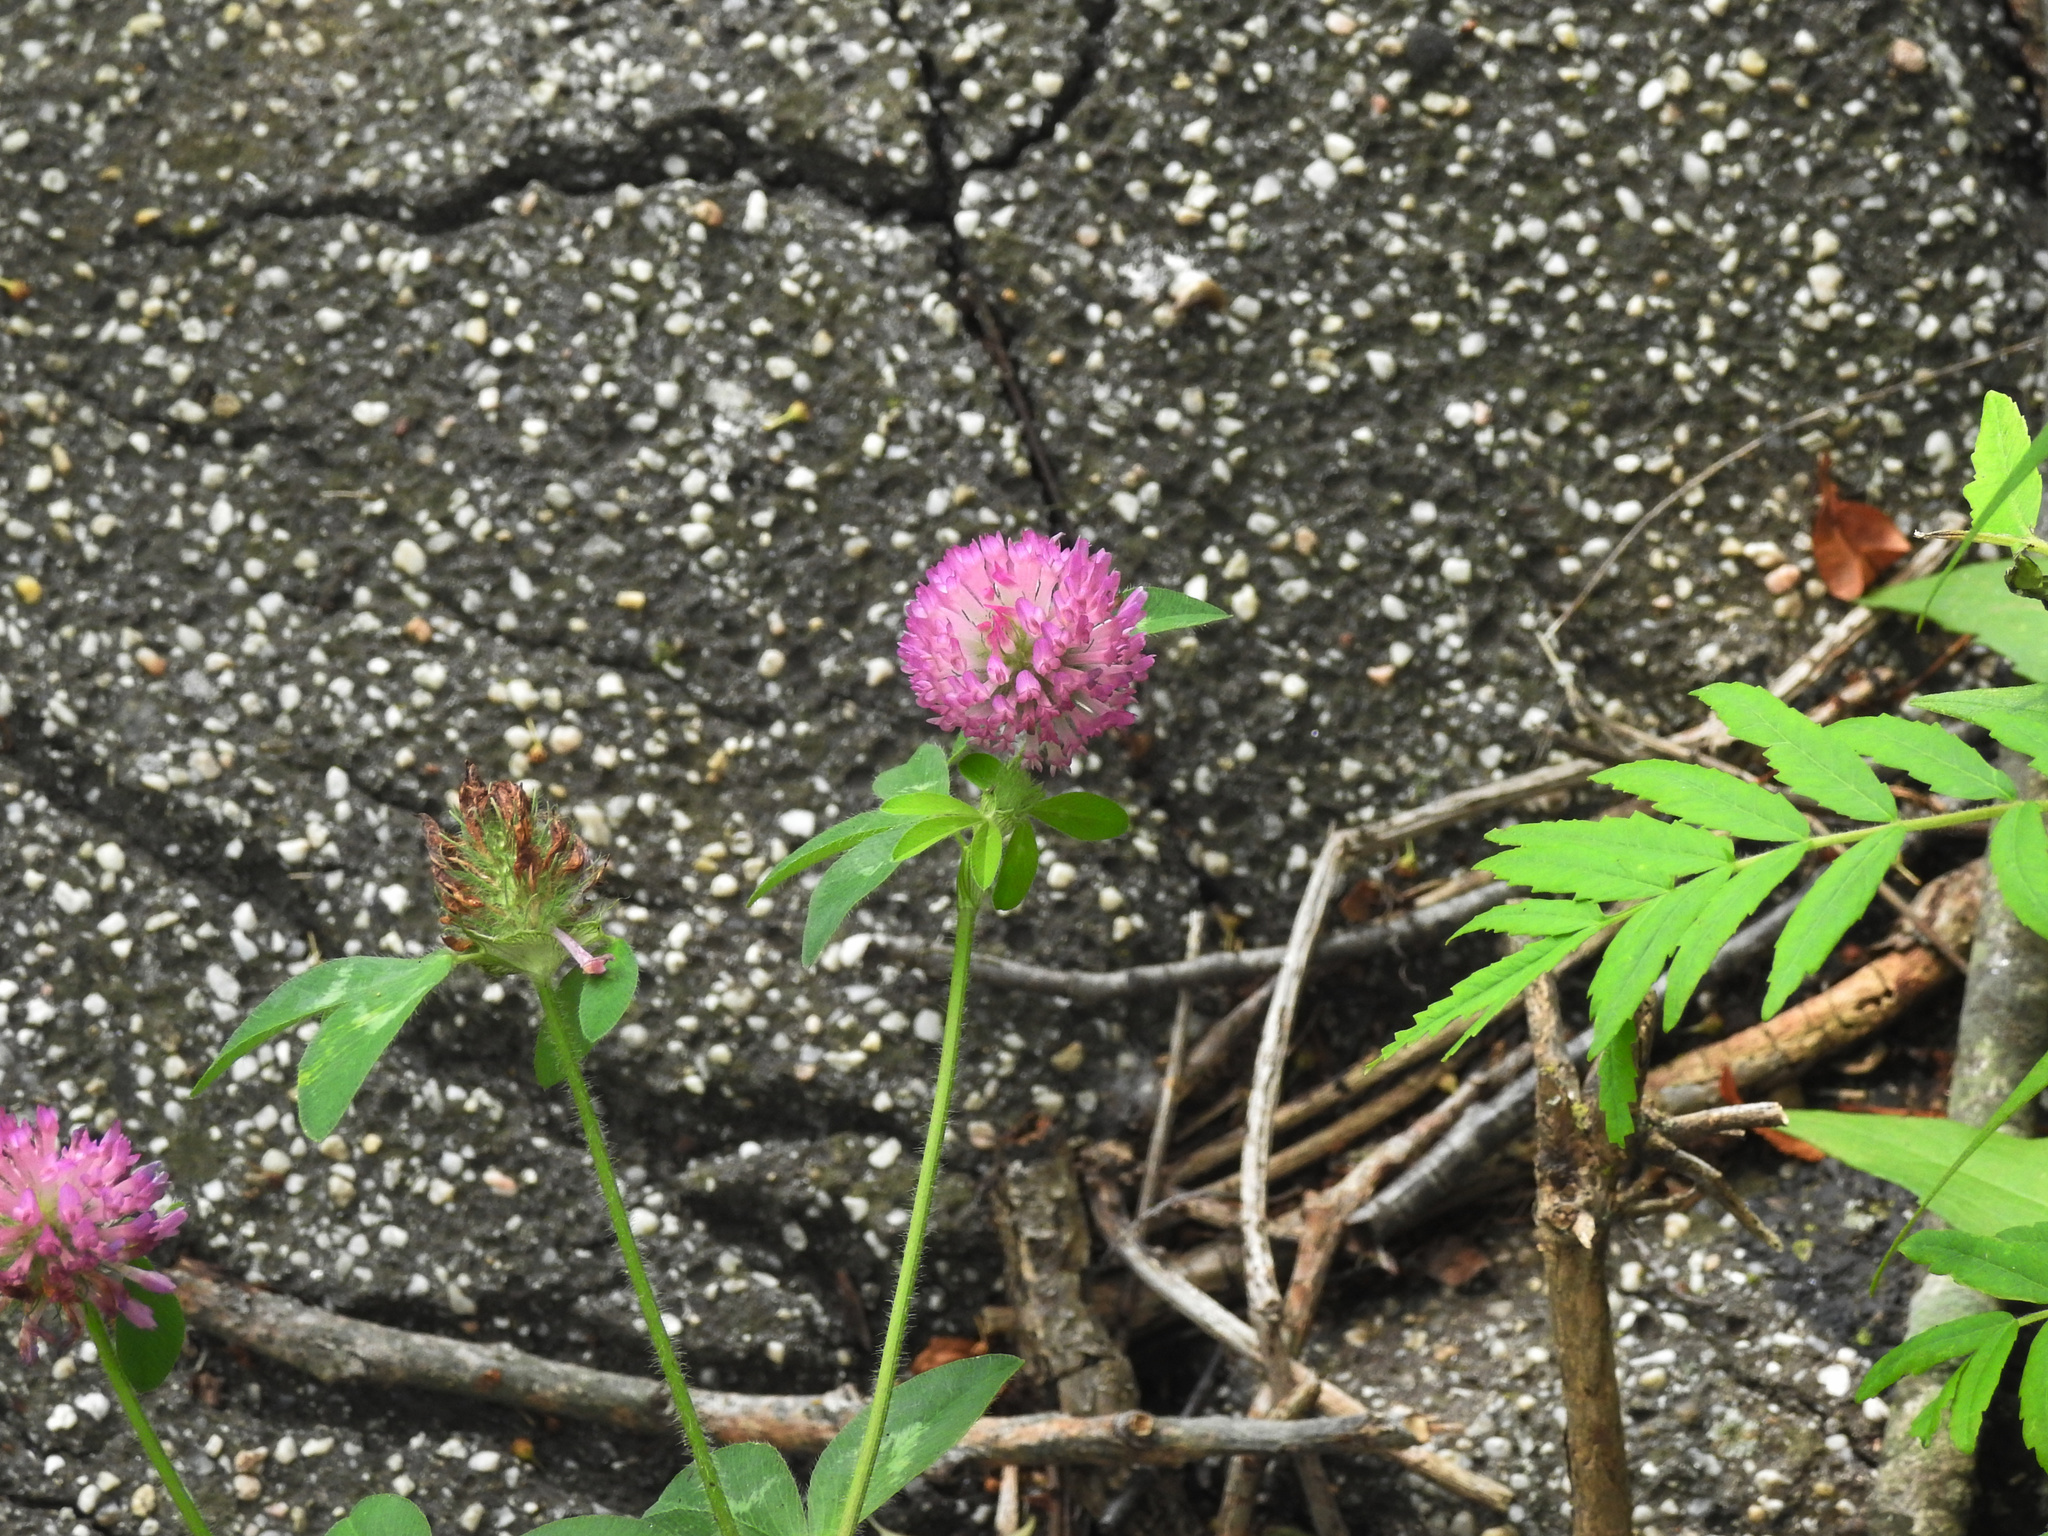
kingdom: Plantae
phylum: Tracheophyta
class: Magnoliopsida
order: Fabales
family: Fabaceae
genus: Trifolium
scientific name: Trifolium pratense
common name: Red clover
